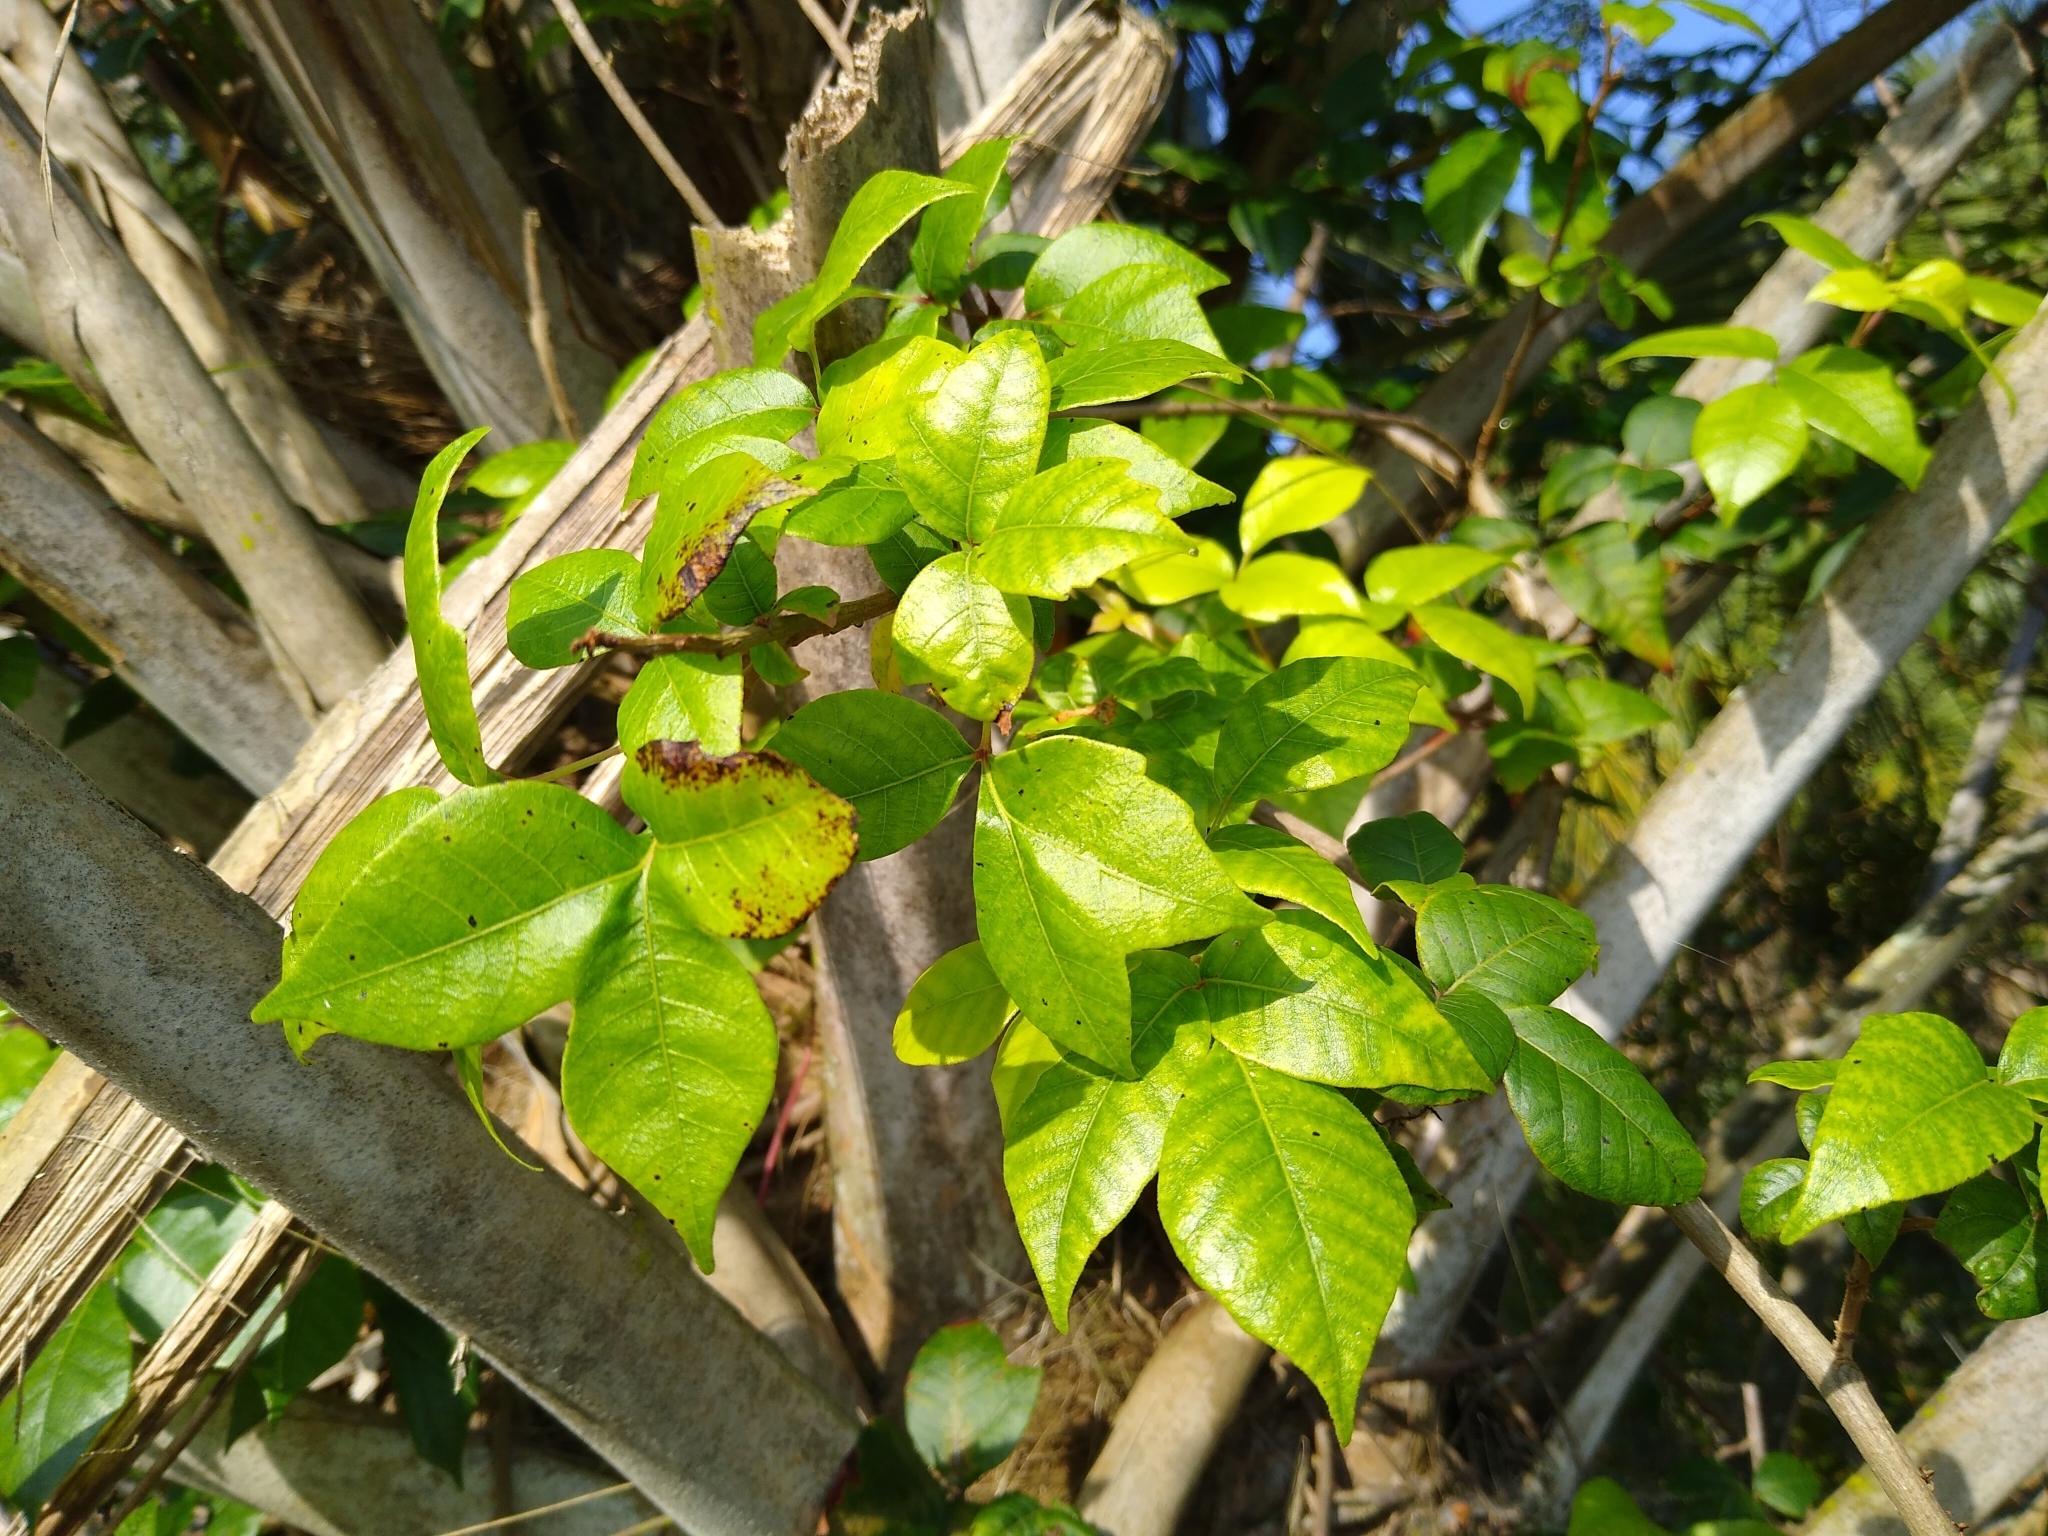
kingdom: Plantae
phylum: Tracheophyta
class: Magnoliopsida
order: Sapindales
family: Anacardiaceae
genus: Toxicodendron
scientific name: Toxicodendron radicans
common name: Poison ivy
